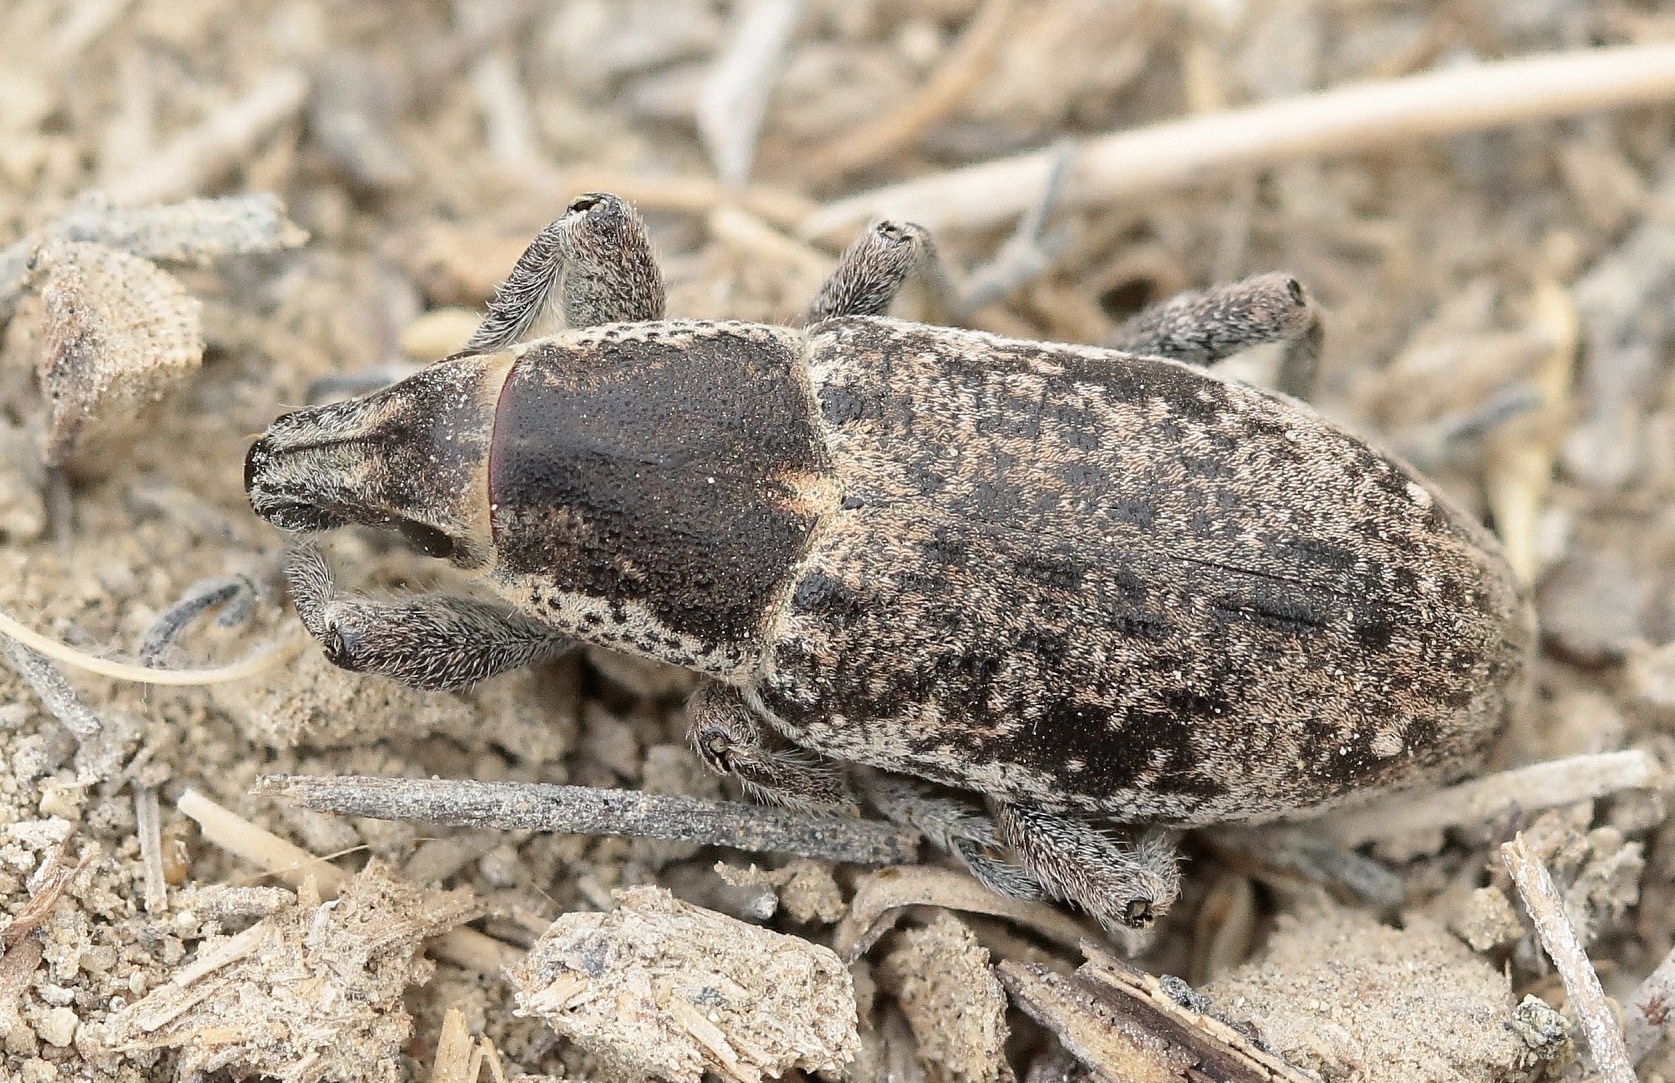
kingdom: Animalia
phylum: Arthropoda
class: Insecta
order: Coleoptera
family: Curculionidae
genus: Maximus
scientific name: Maximus strabus
